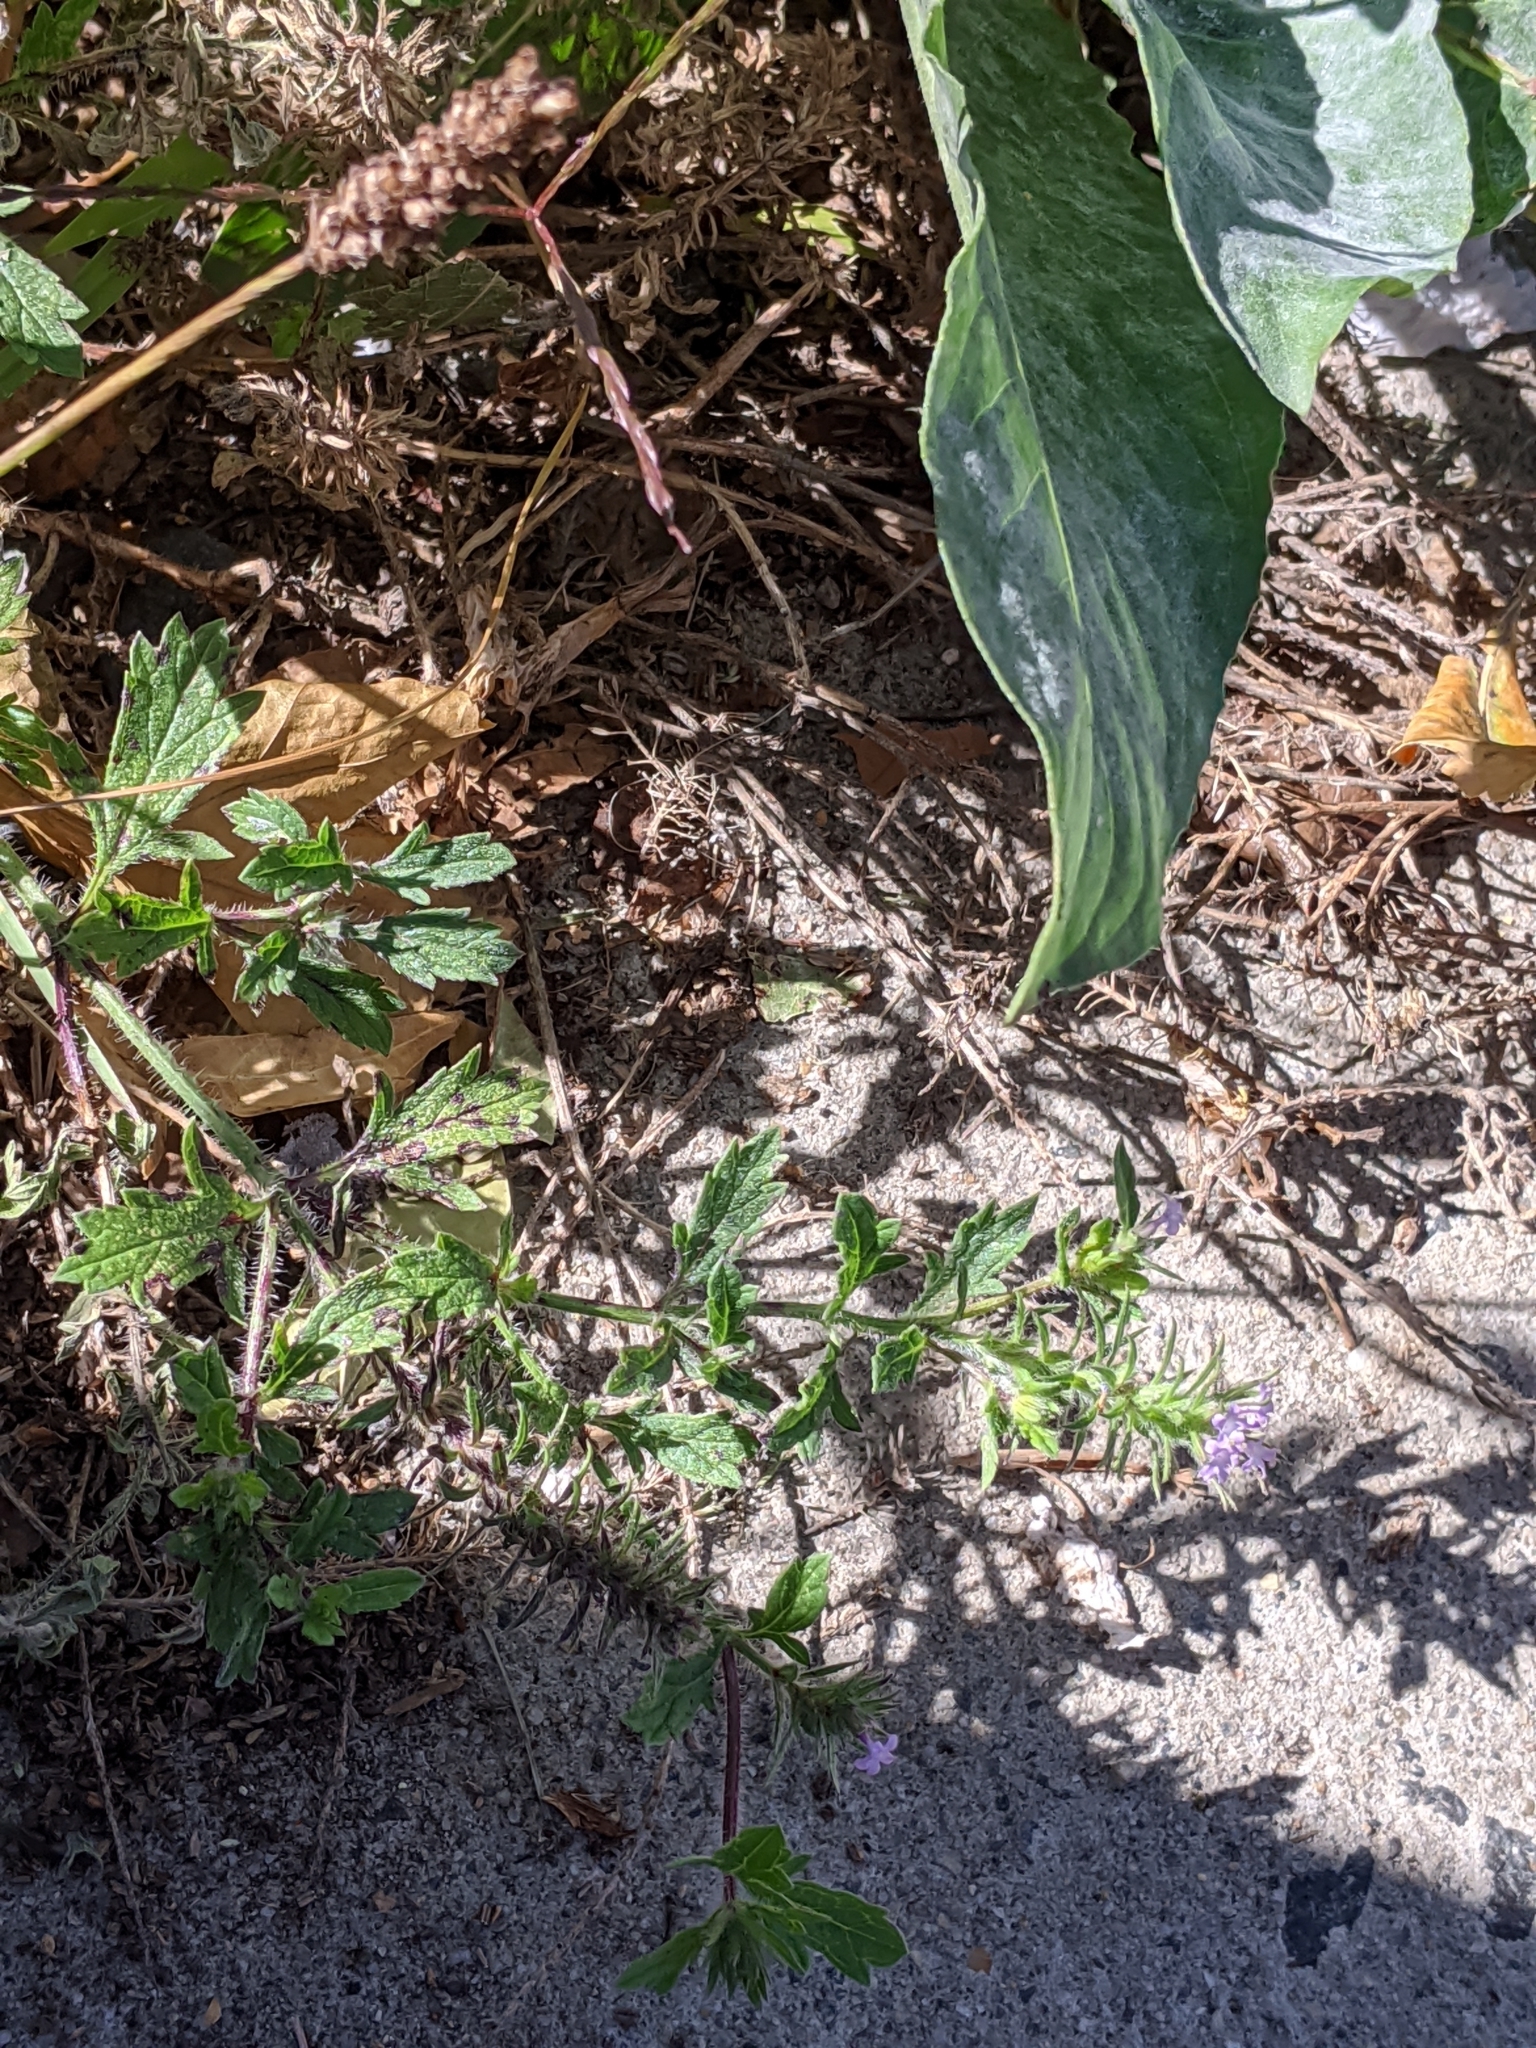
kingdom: Plantae
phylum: Tracheophyta
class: Magnoliopsida
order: Lamiales
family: Verbenaceae
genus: Verbena
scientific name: Verbena bracteata
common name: Bracted vervain
